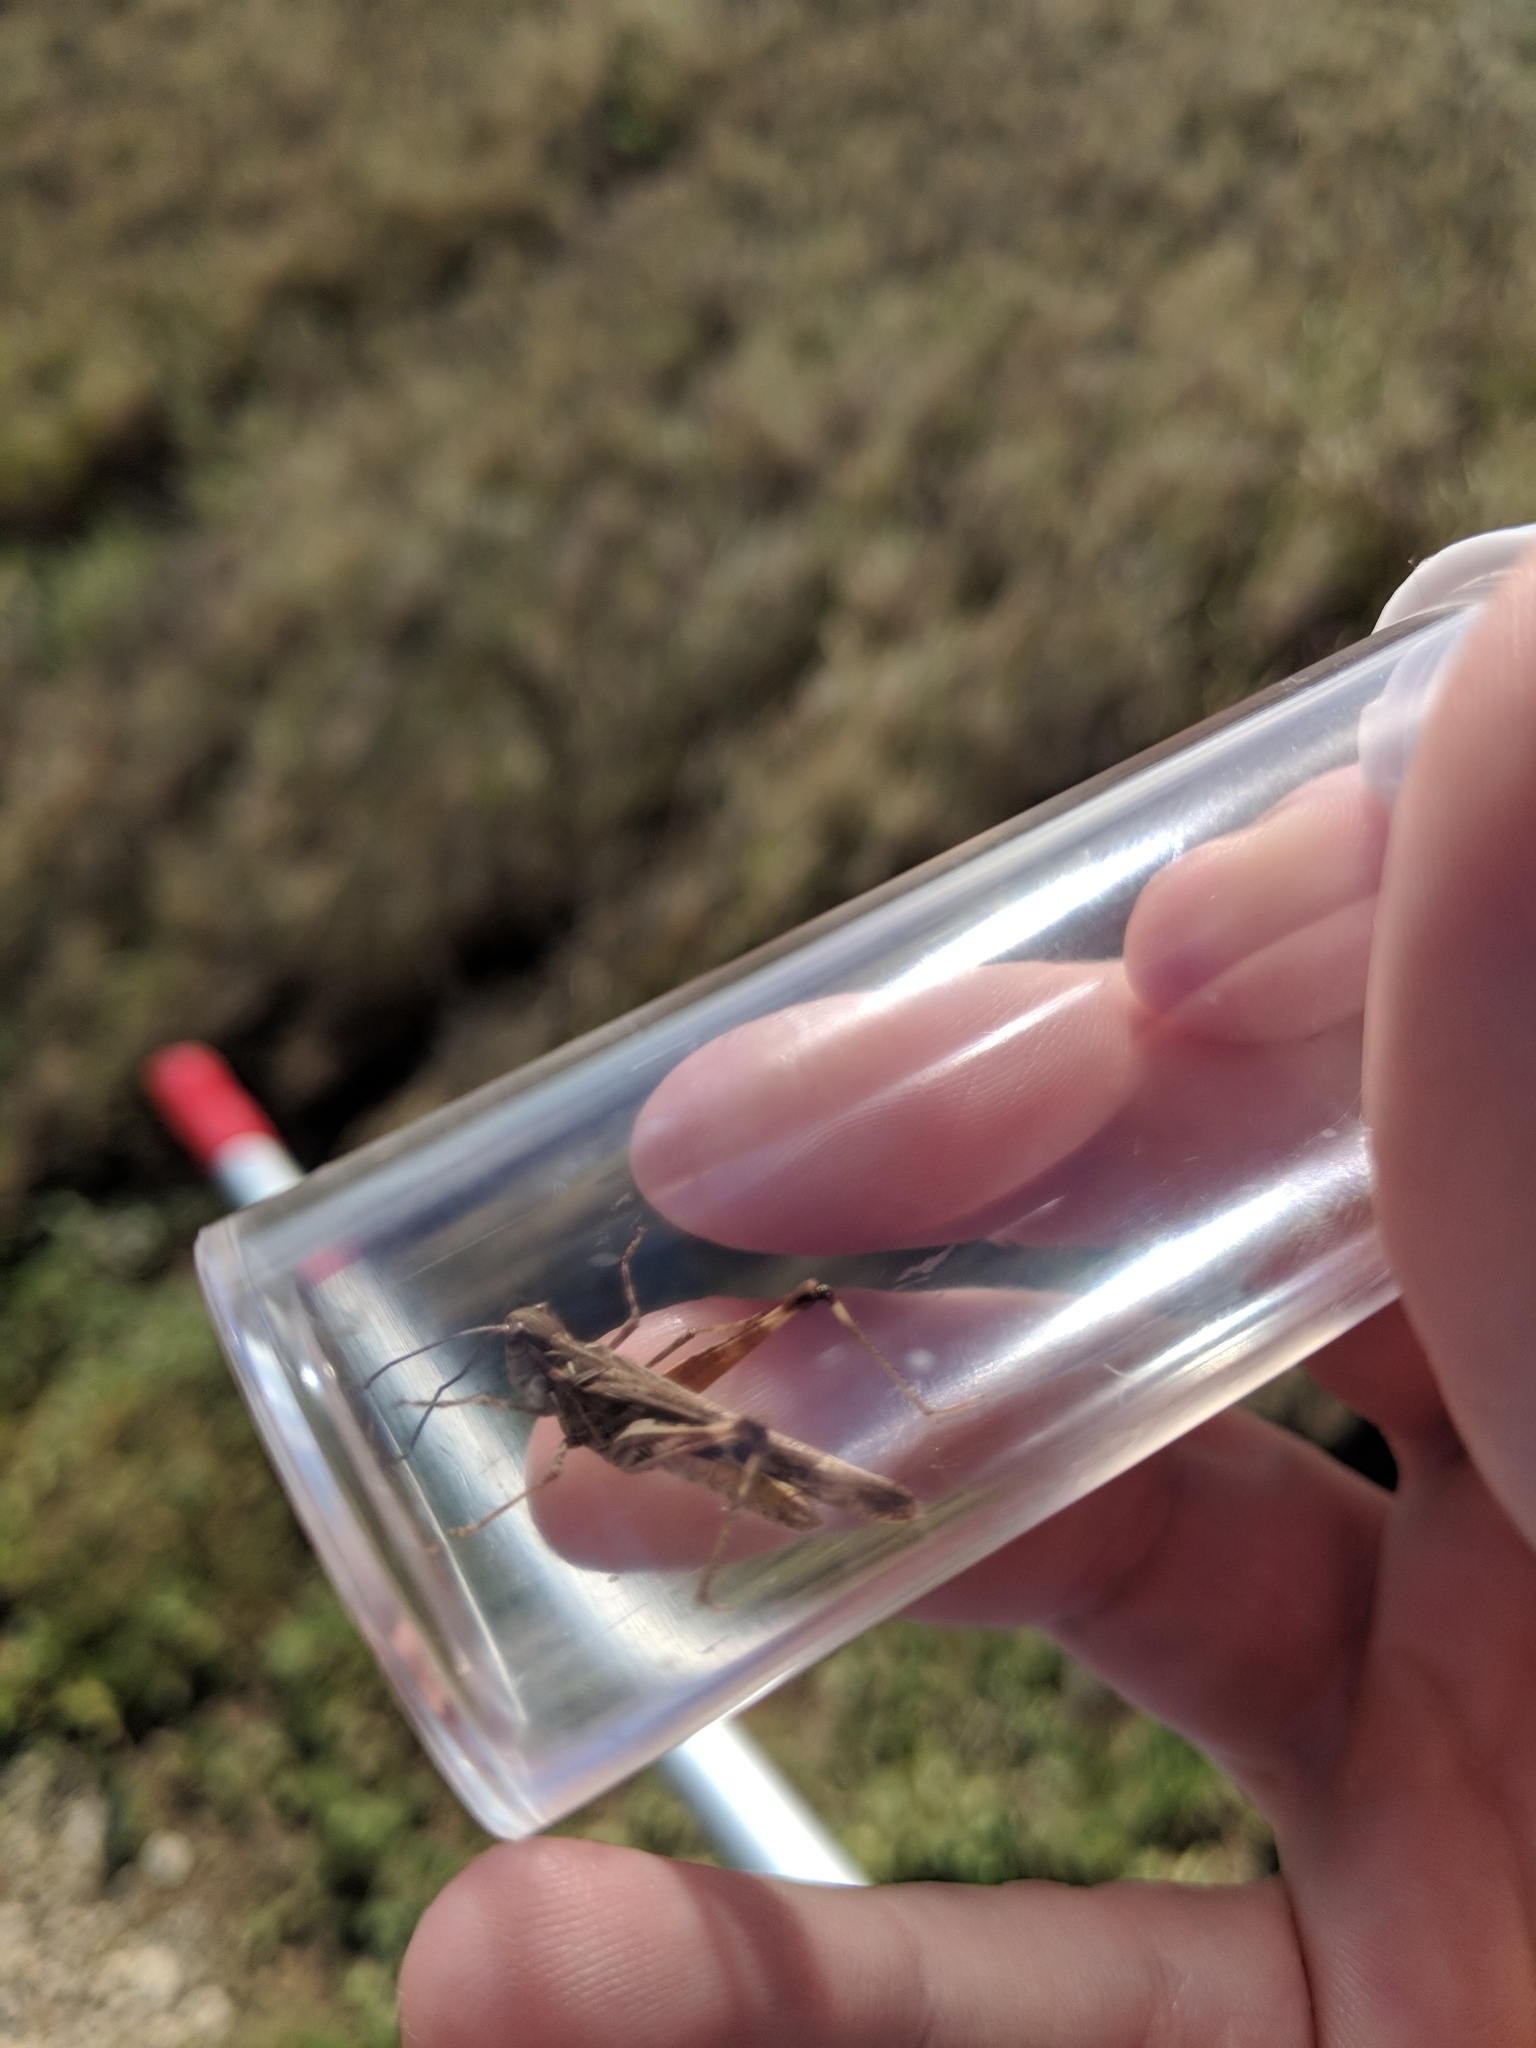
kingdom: Animalia
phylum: Arthropoda
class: Insecta
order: Orthoptera
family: Acrididae
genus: Oedaleus
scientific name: Oedaleus abruptus
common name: Grasshopper
